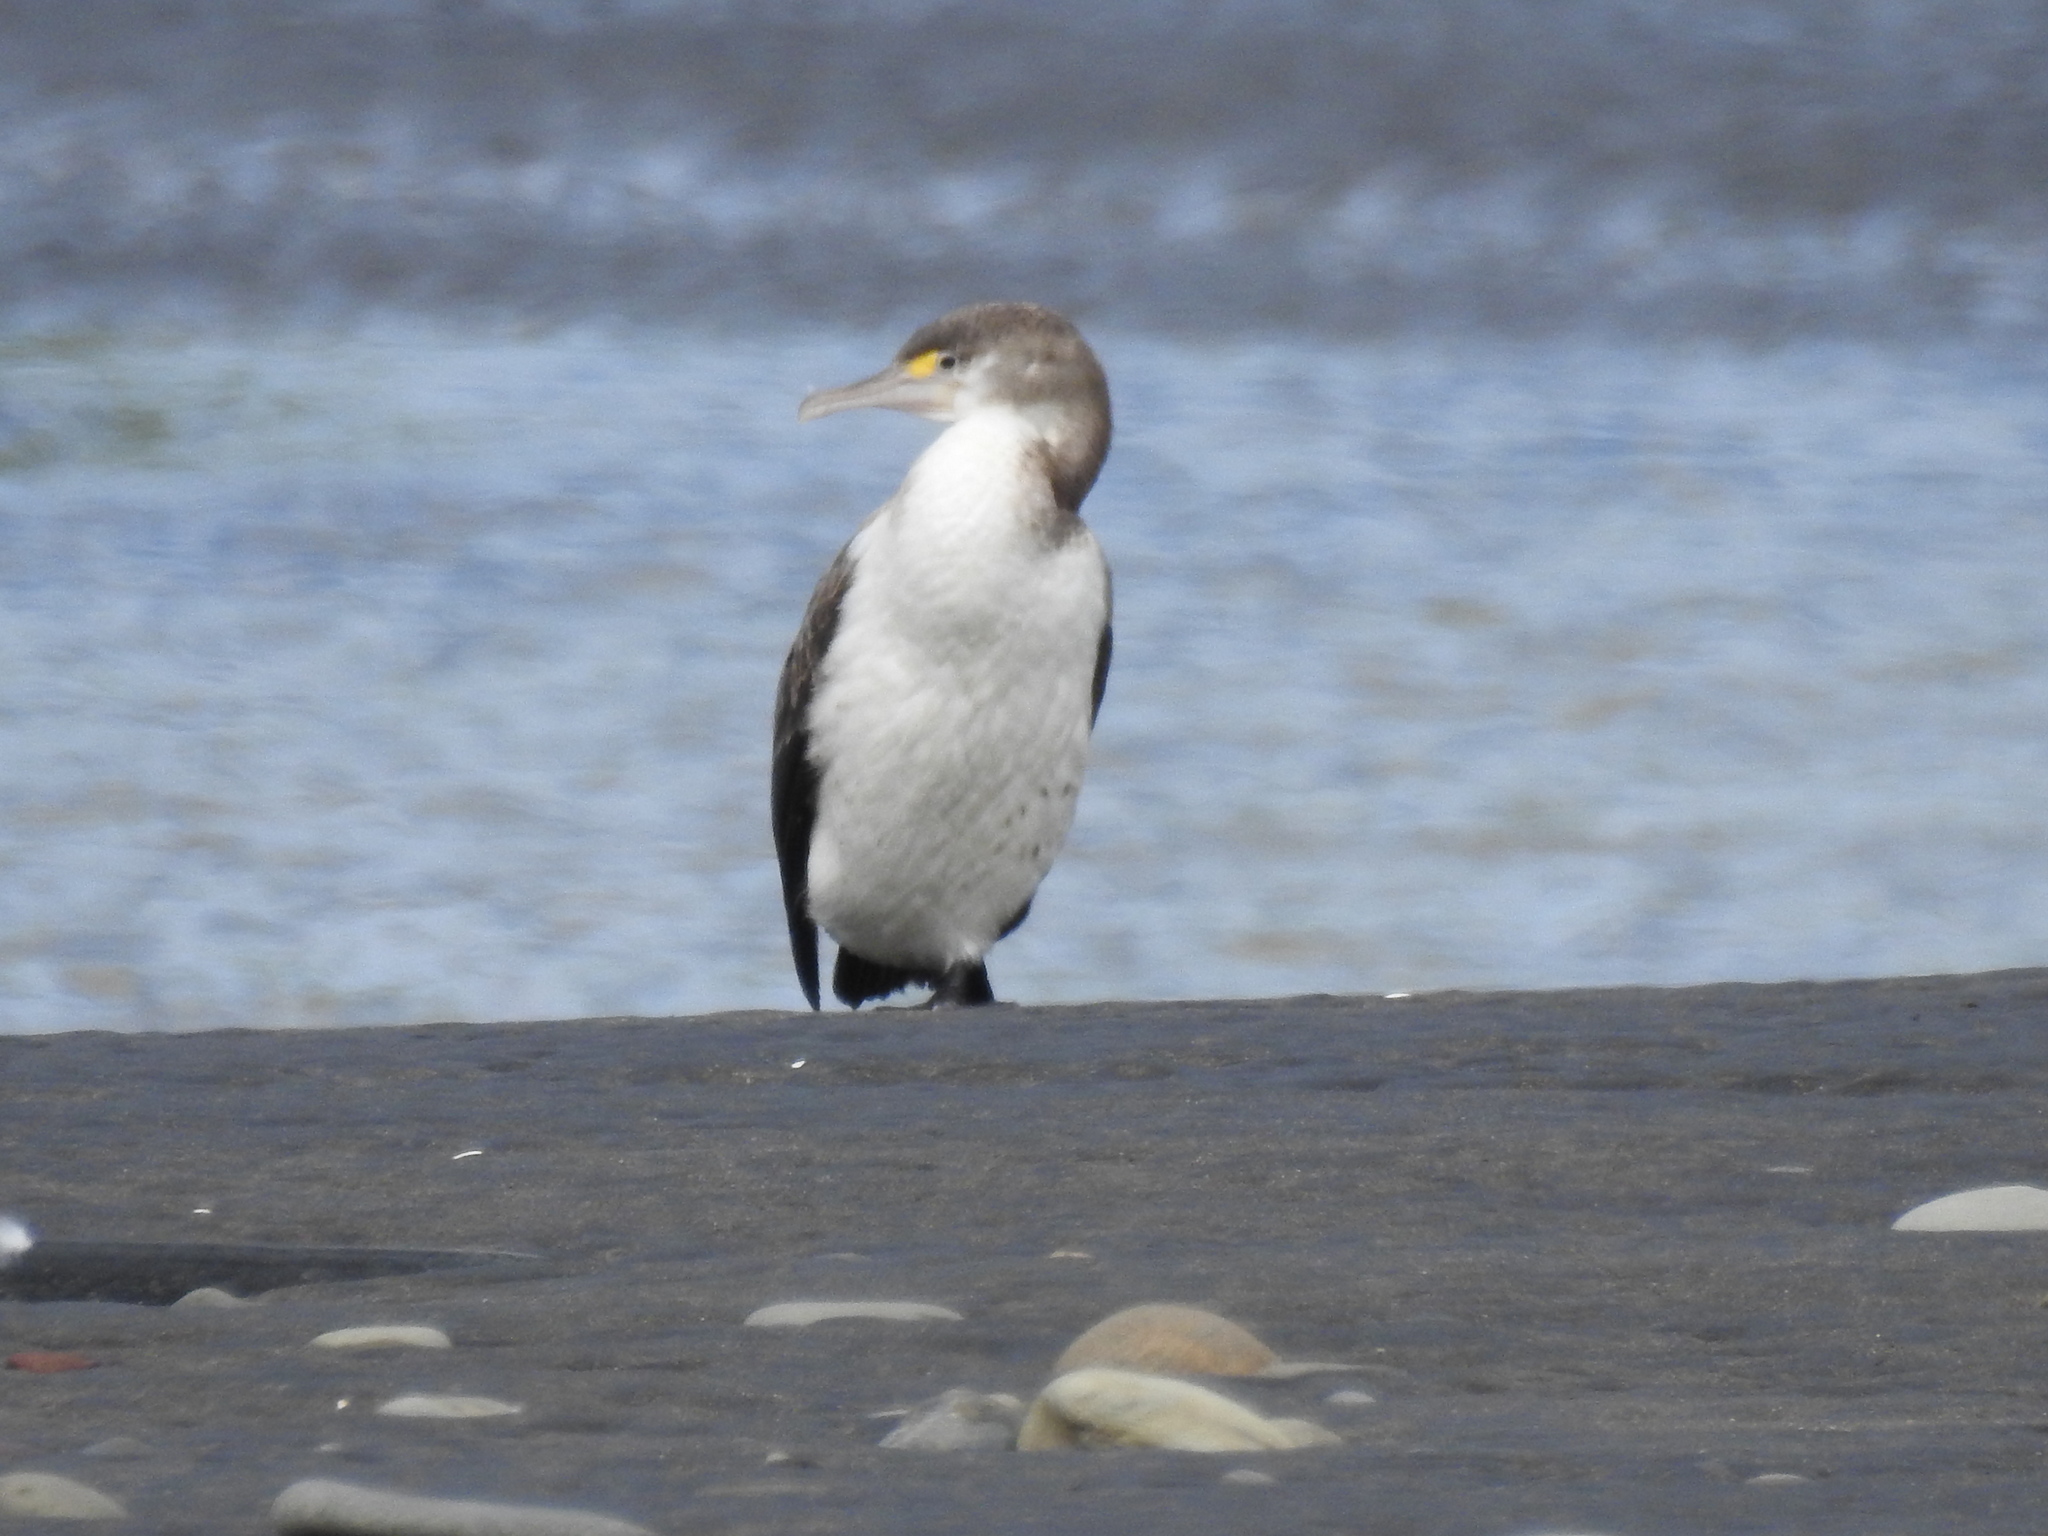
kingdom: Animalia
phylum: Chordata
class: Aves
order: Suliformes
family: Phalacrocoracidae
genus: Phalacrocorax
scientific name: Phalacrocorax varius
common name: Pied cormorant
